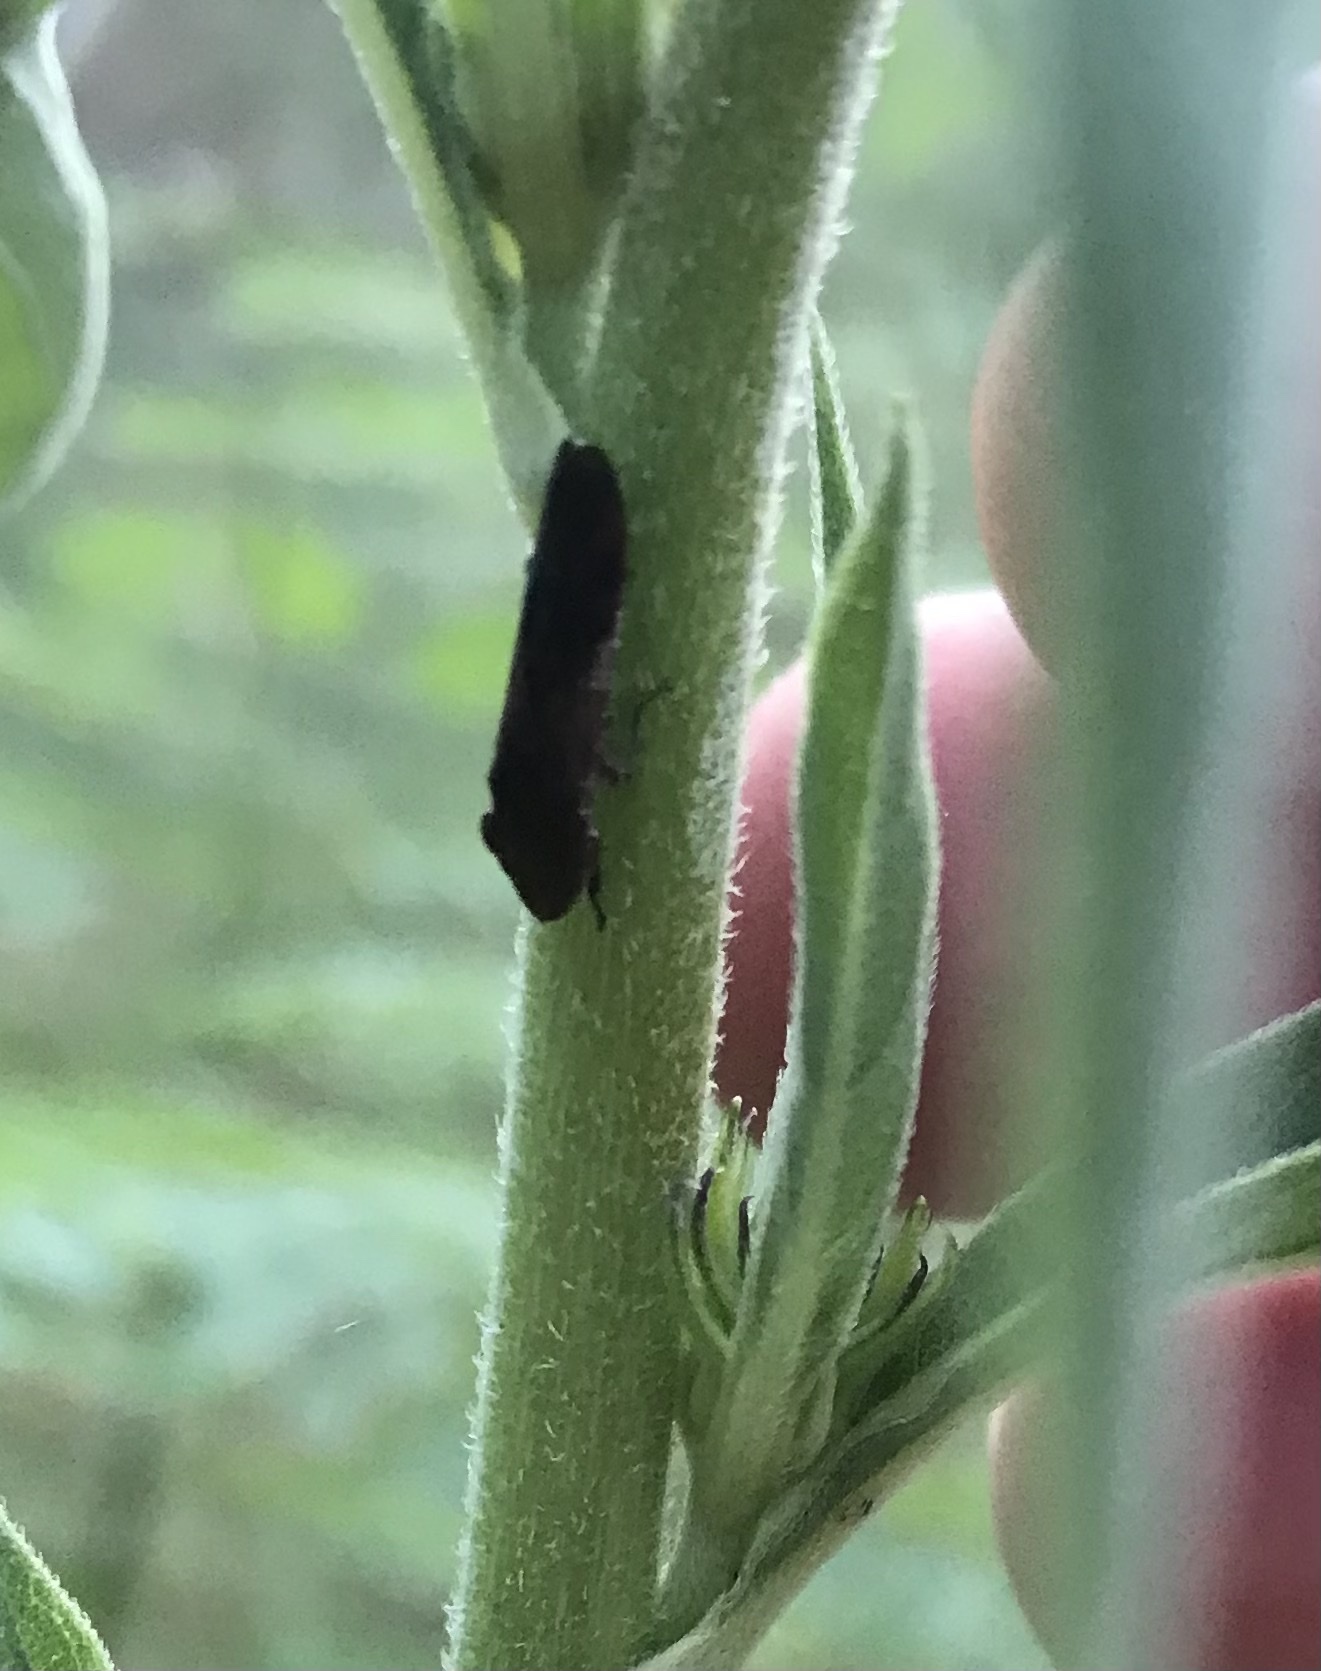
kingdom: Animalia
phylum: Arthropoda
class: Insecta
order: Hemiptera
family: Cicadellidae
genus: Homalodisca
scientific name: Homalodisca vitripennis
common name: Glassy-winged sharpshooter
